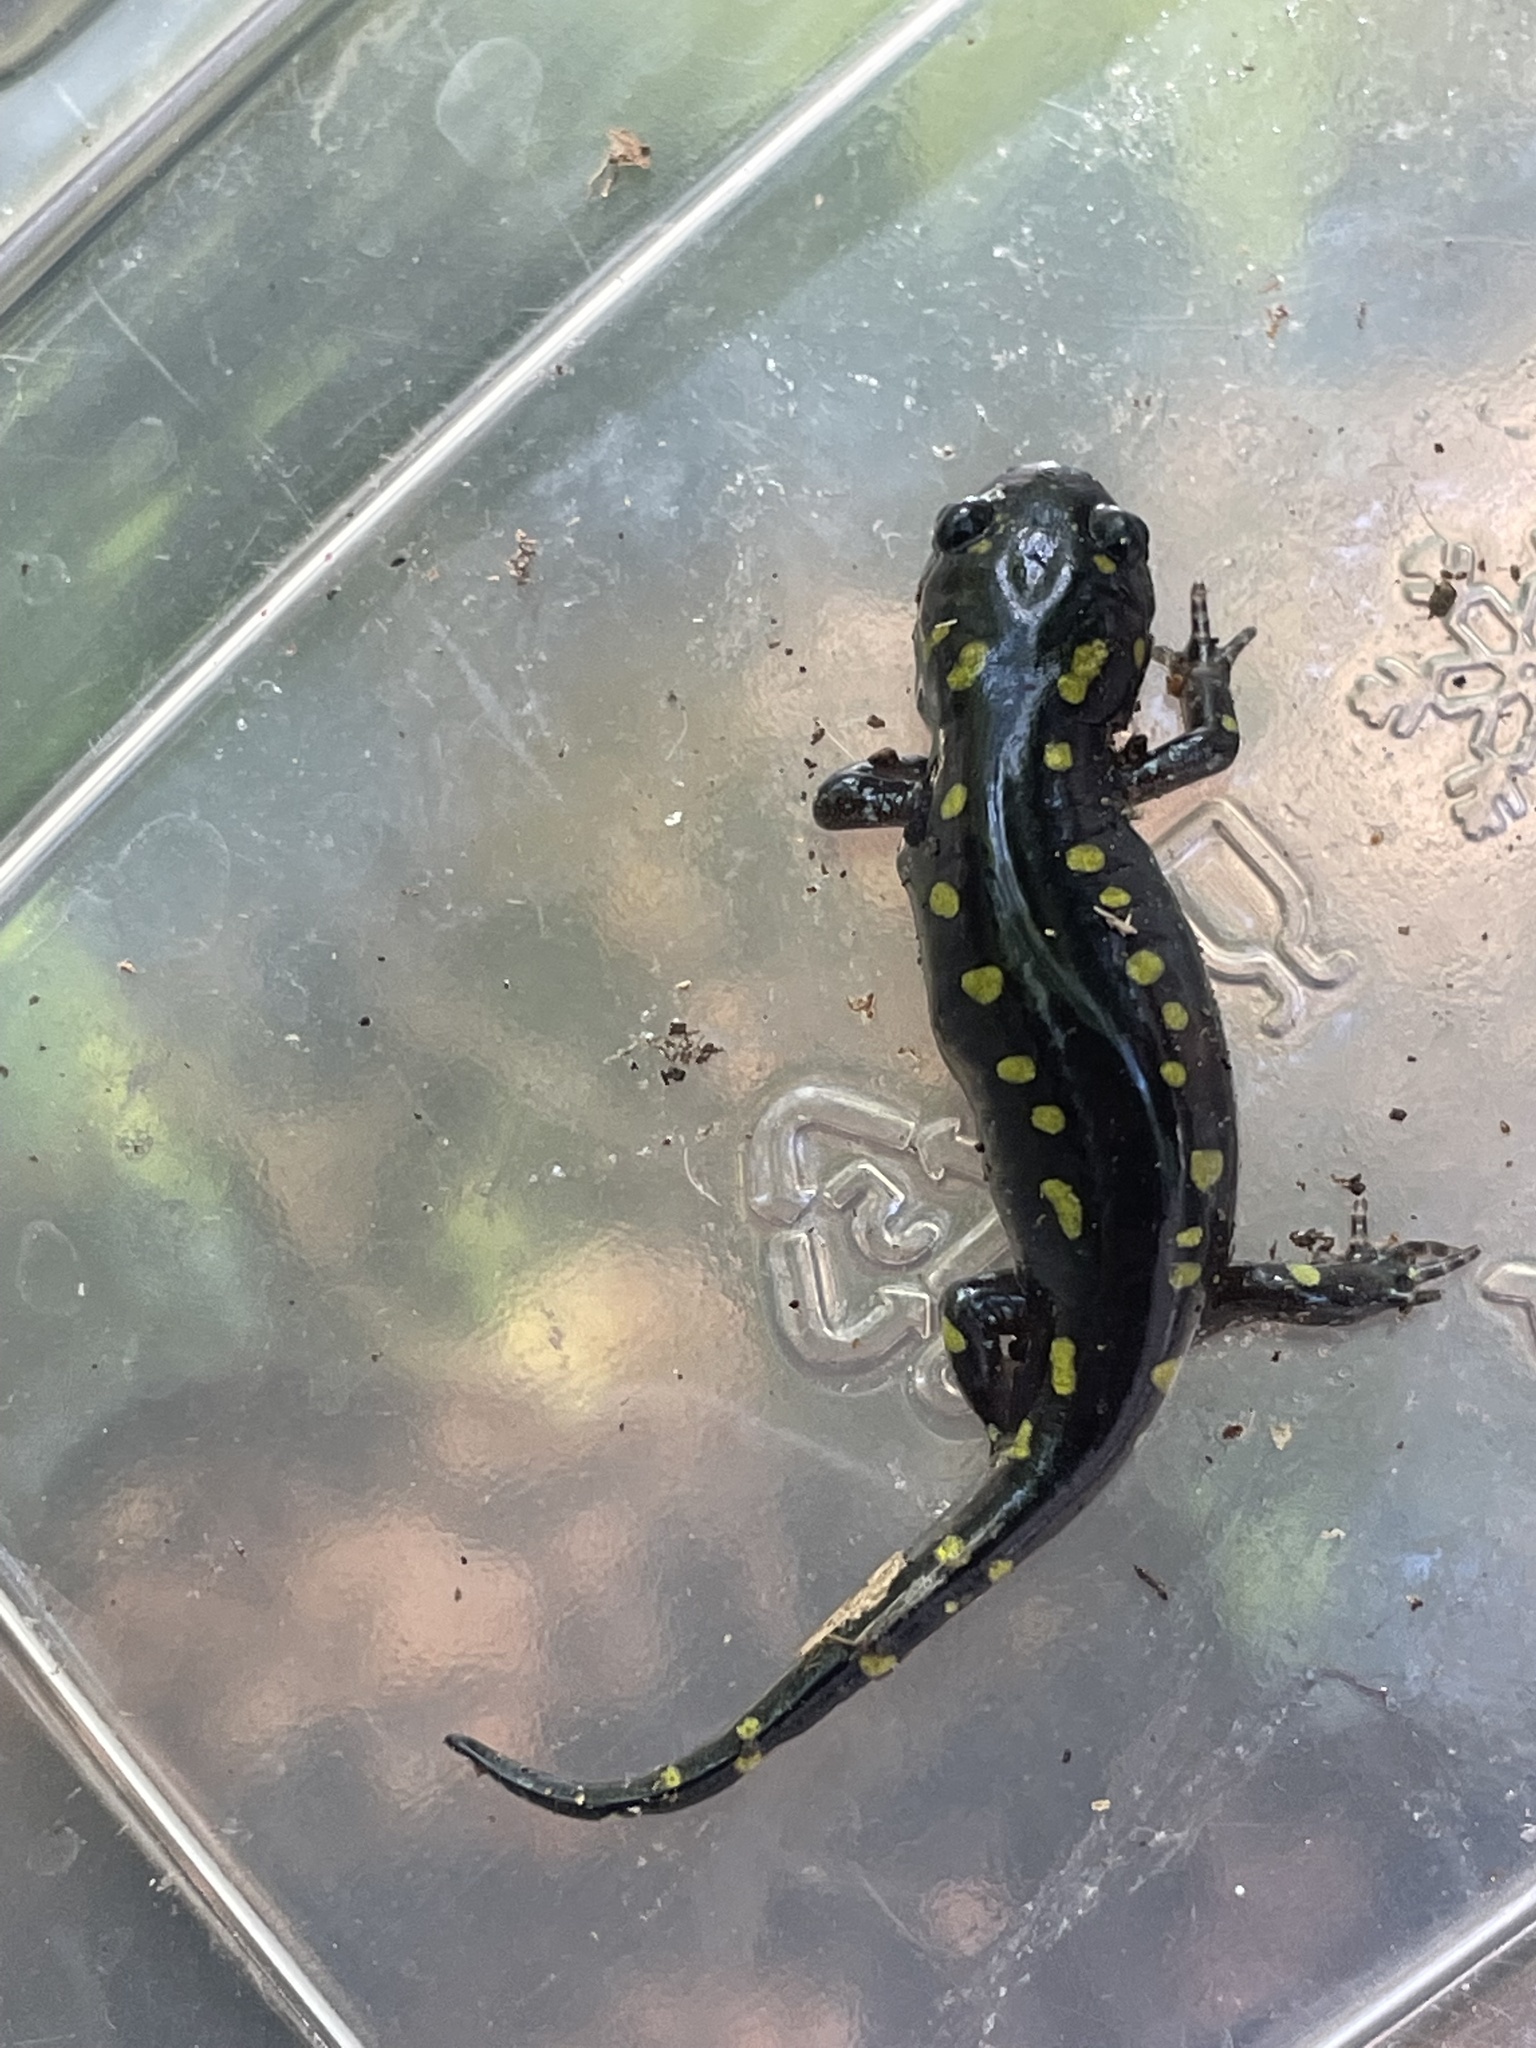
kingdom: Animalia
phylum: Chordata
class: Amphibia
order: Caudata
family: Ambystomatidae
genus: Ambystoma
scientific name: Ambystoma maculatum
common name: Spotted salamander
